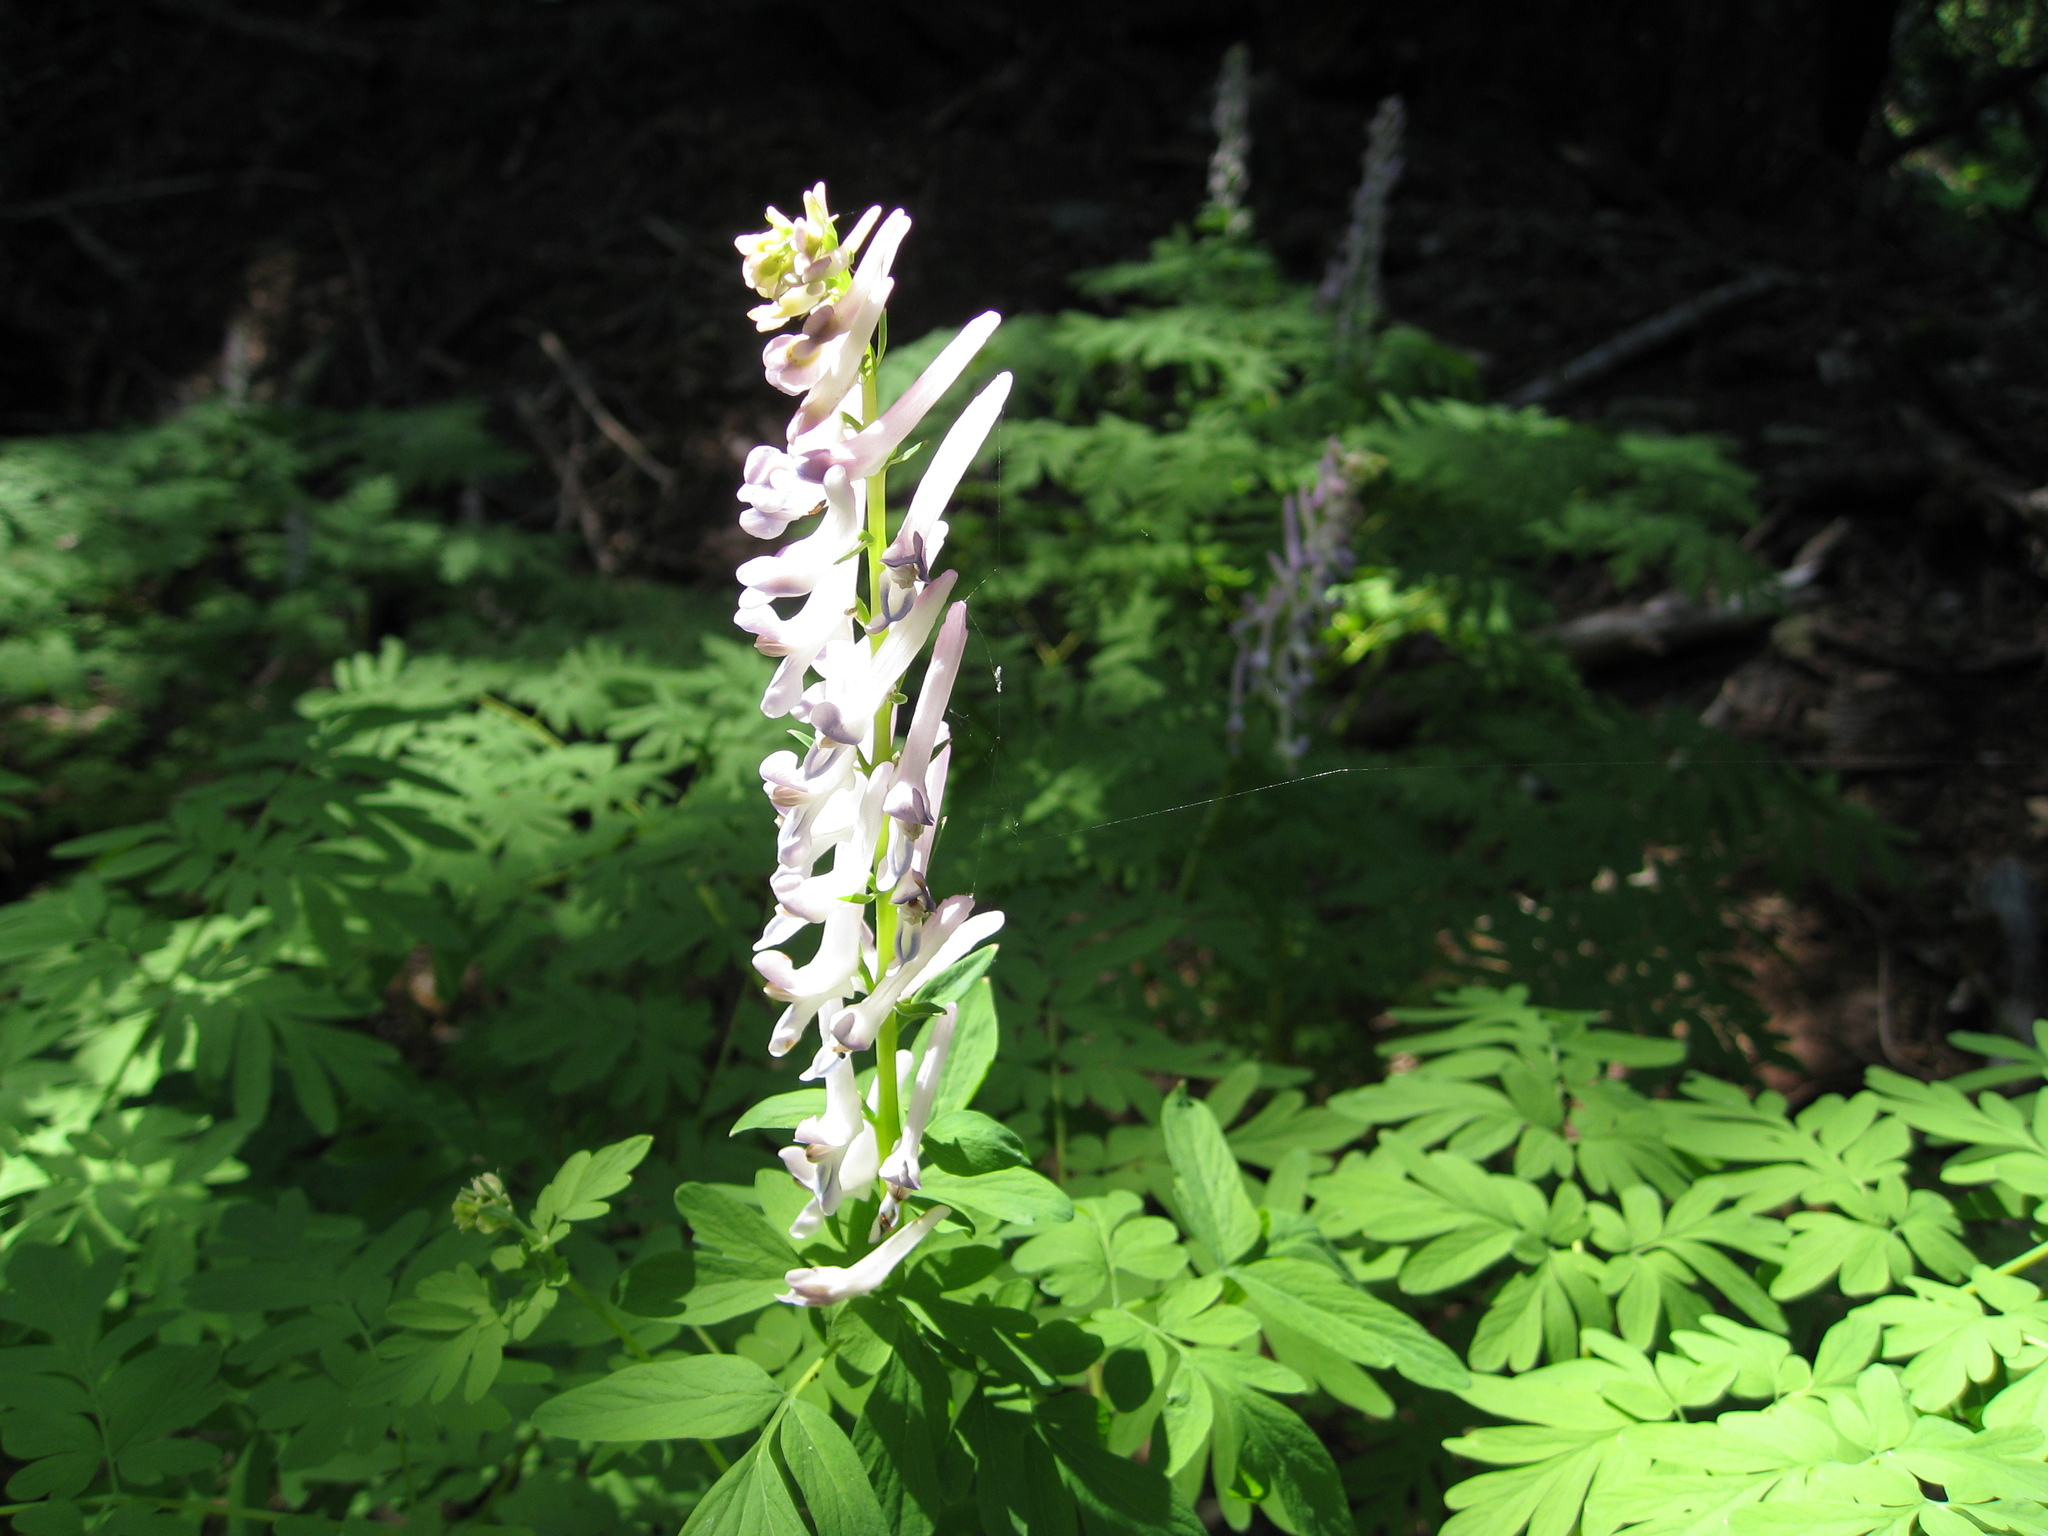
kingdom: Plantae
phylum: Tracheophyta
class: Magnoliopsida
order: Ranunculales
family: Papaveraceae
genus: Corydalis
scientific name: Corydalis scouleri
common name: Scouler's corydalis
